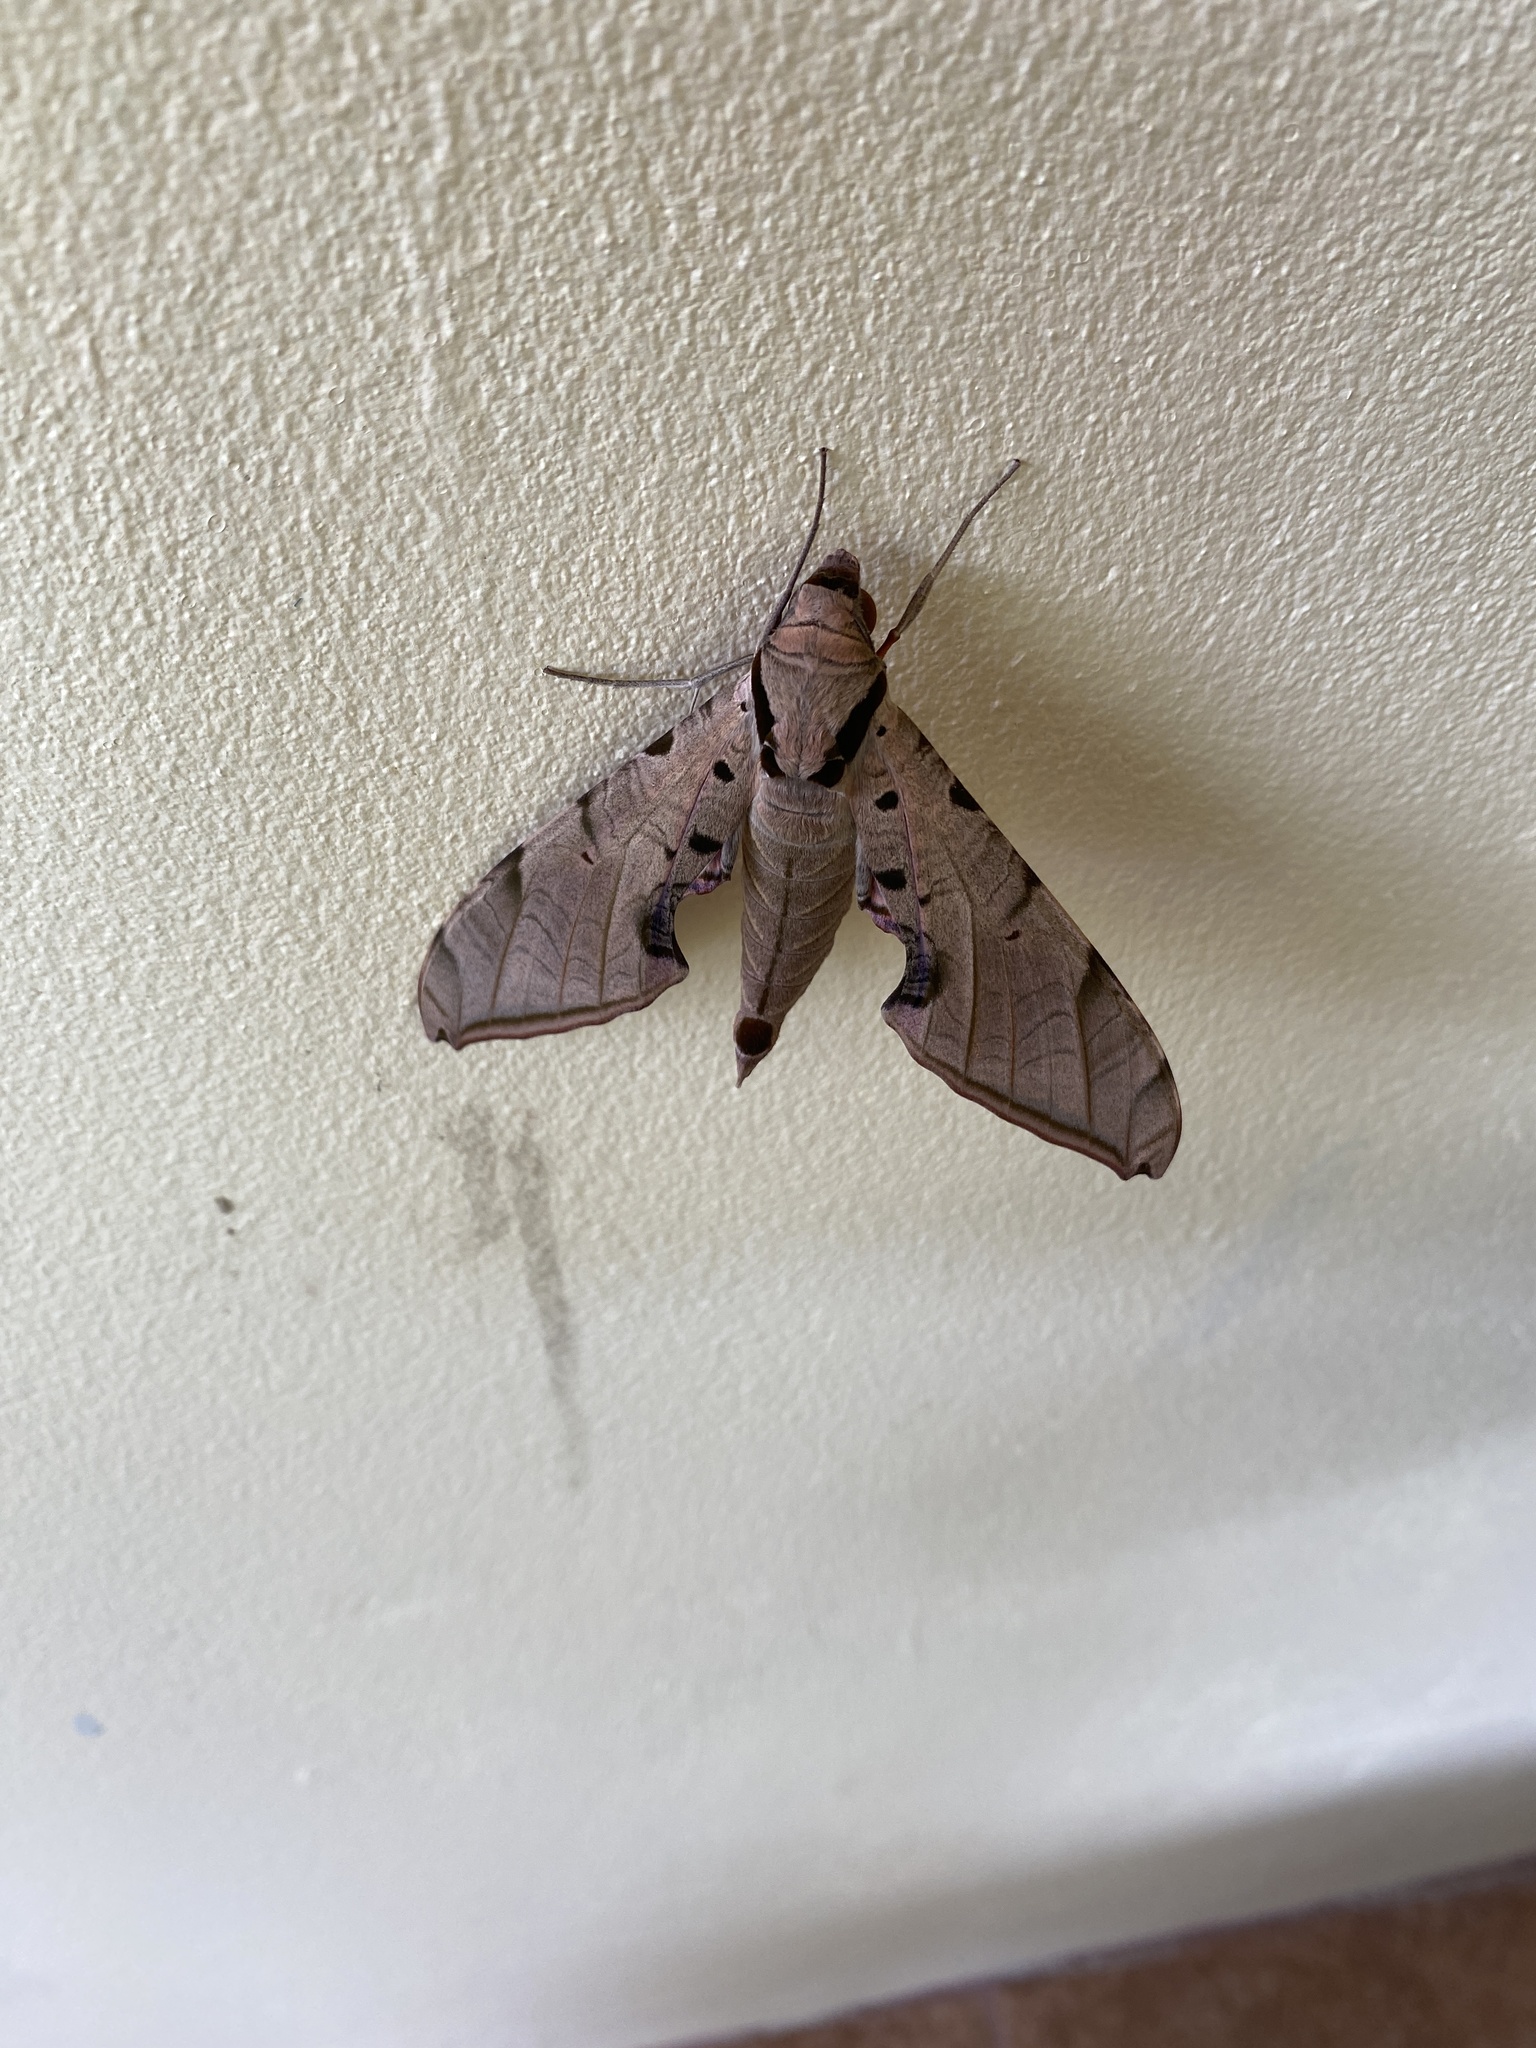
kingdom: Animalia
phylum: Arthropoda
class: Insecta
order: Lepidoptera
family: Sphingidae
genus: Protambulyx
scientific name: Protambulyx strigilis
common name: Streaked sphinx
